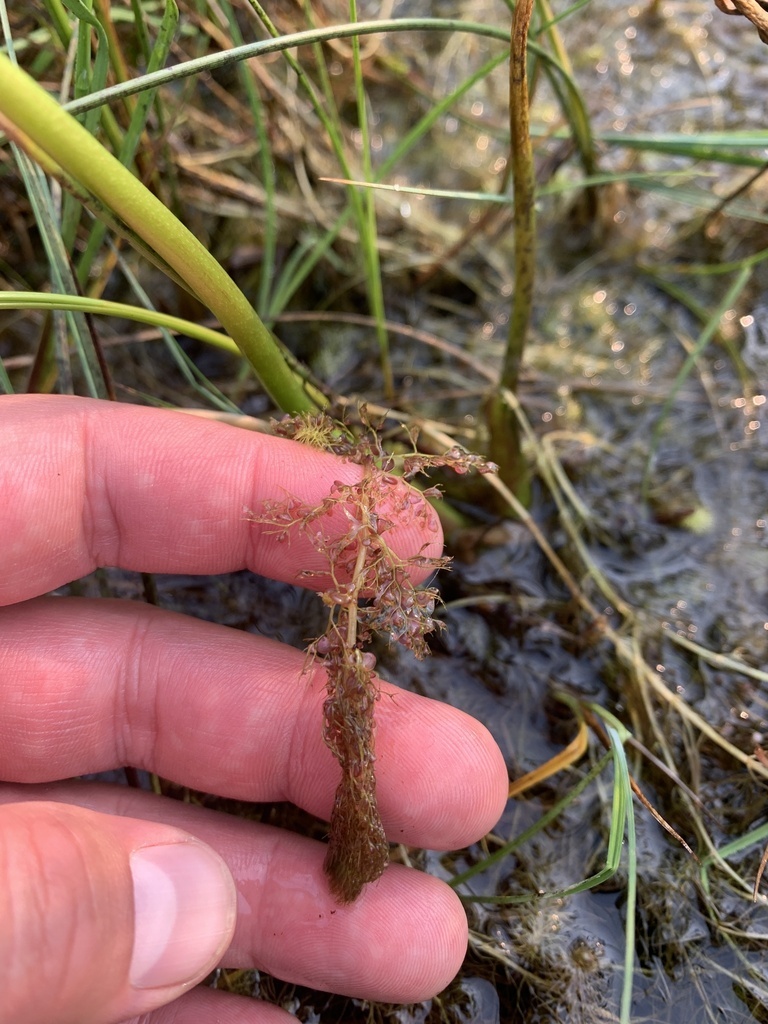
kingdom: Plantae
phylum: Tracheophyta
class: Magnoliopsida
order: Lamiales
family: Lentibulariaceae
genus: Utricularia
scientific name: Utricularia macrorhiza
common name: Common bladderwort
